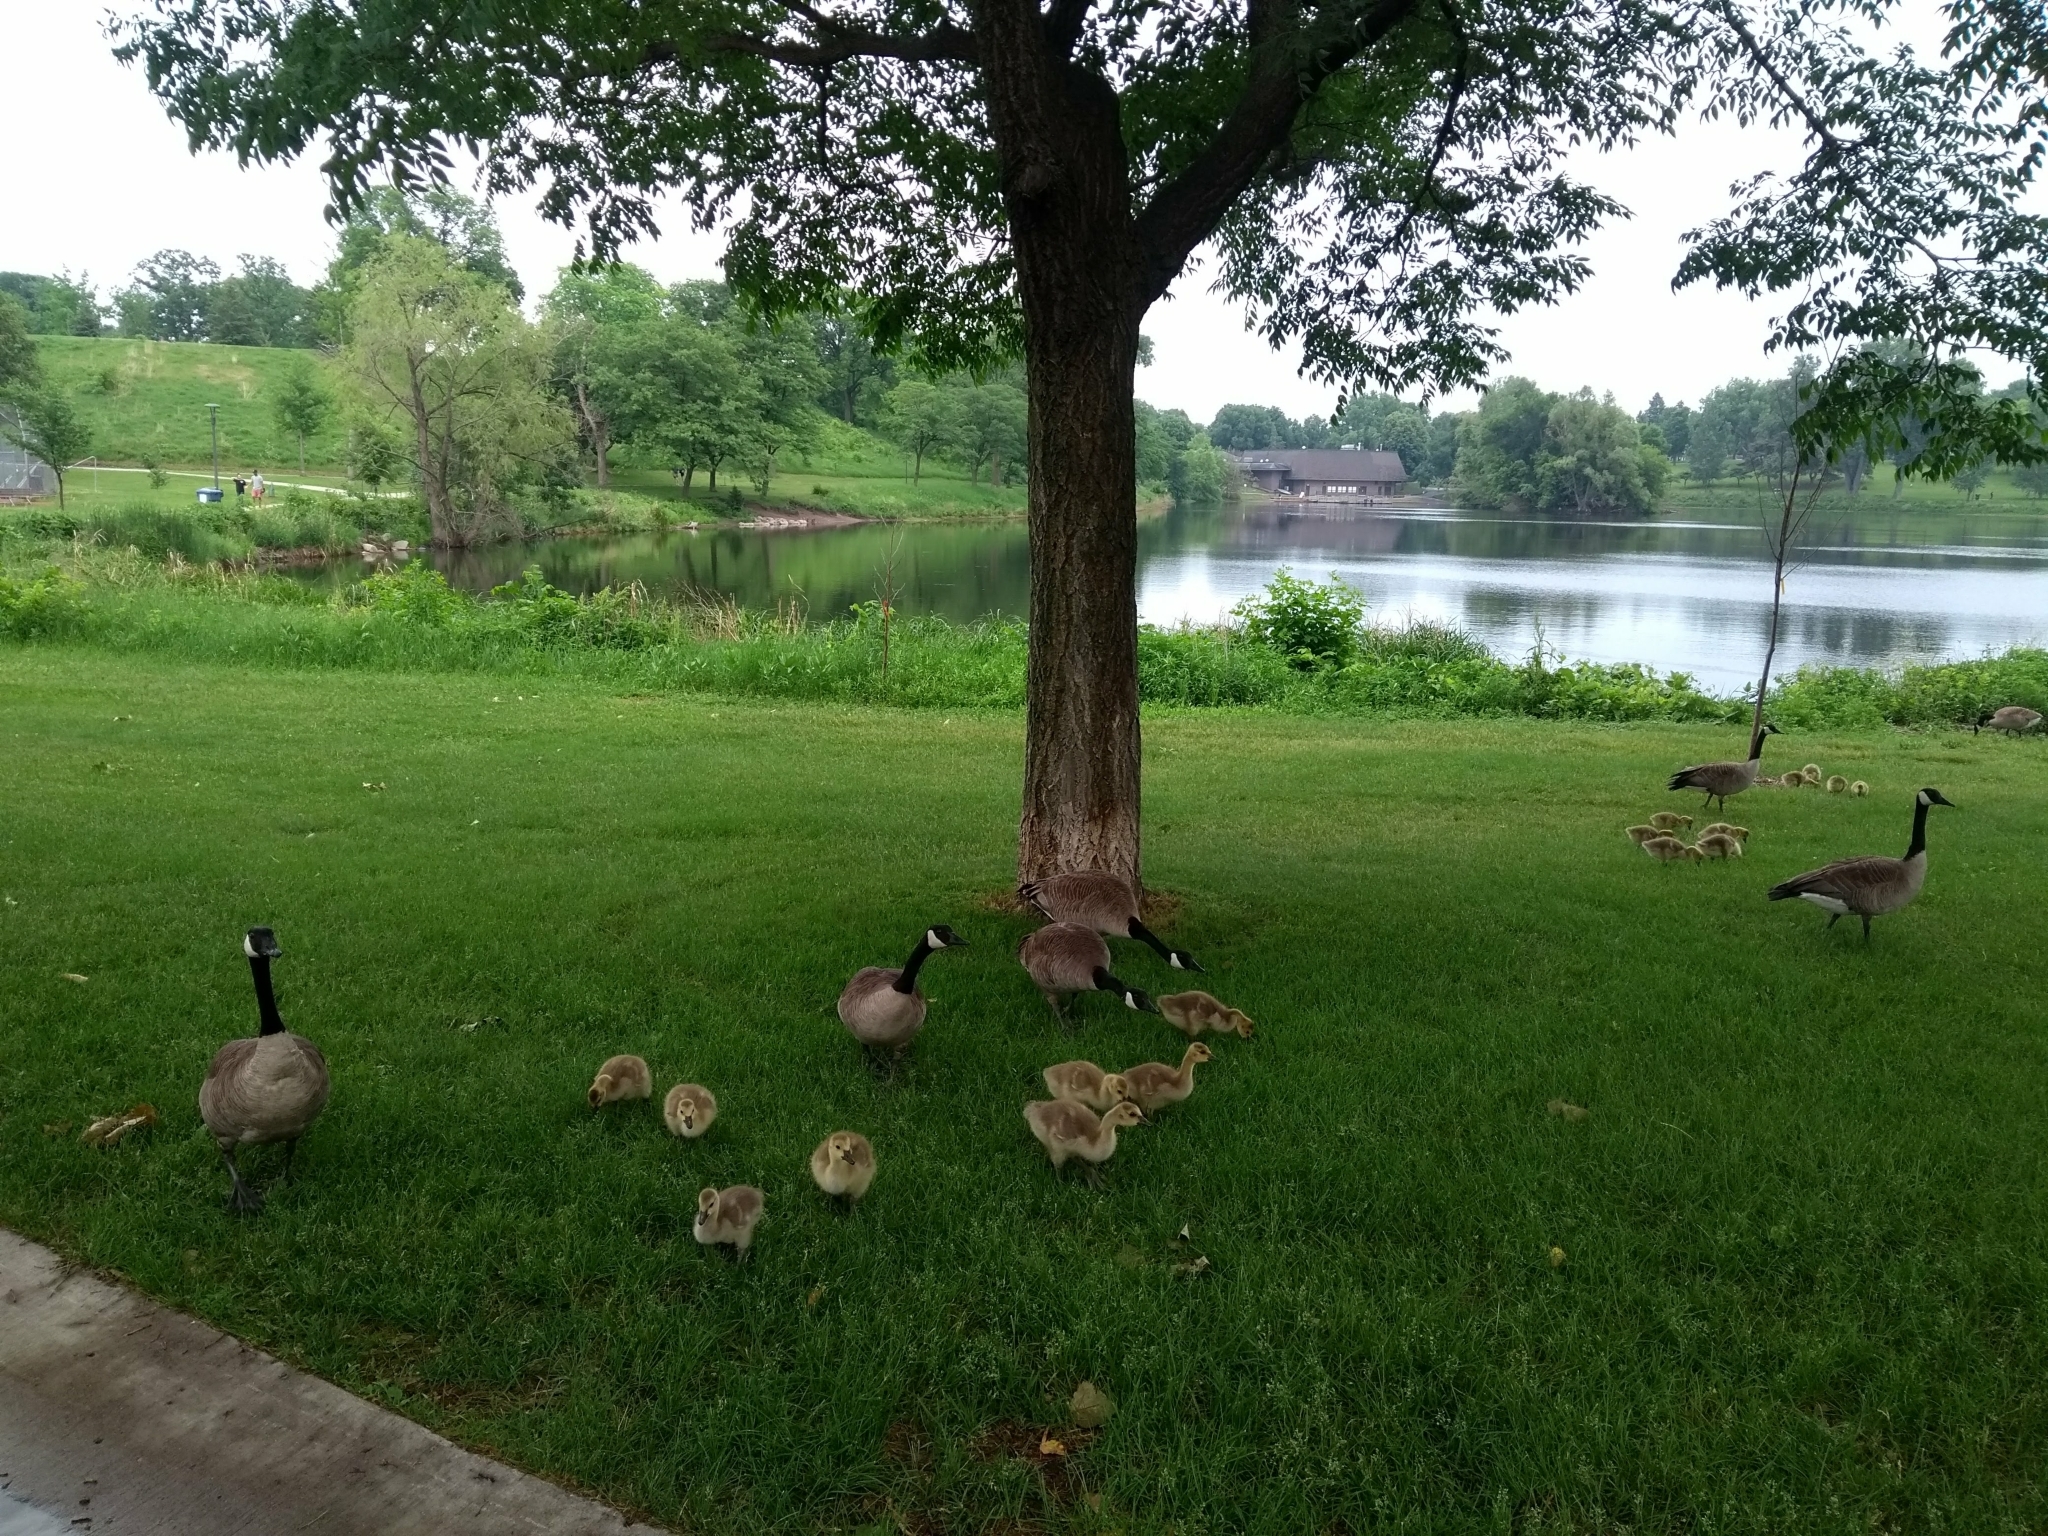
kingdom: Animalia
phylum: Chordata
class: Aves
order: Anseriformes
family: Anatidae
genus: Branta
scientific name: Branta canadensis
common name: Canada goose
